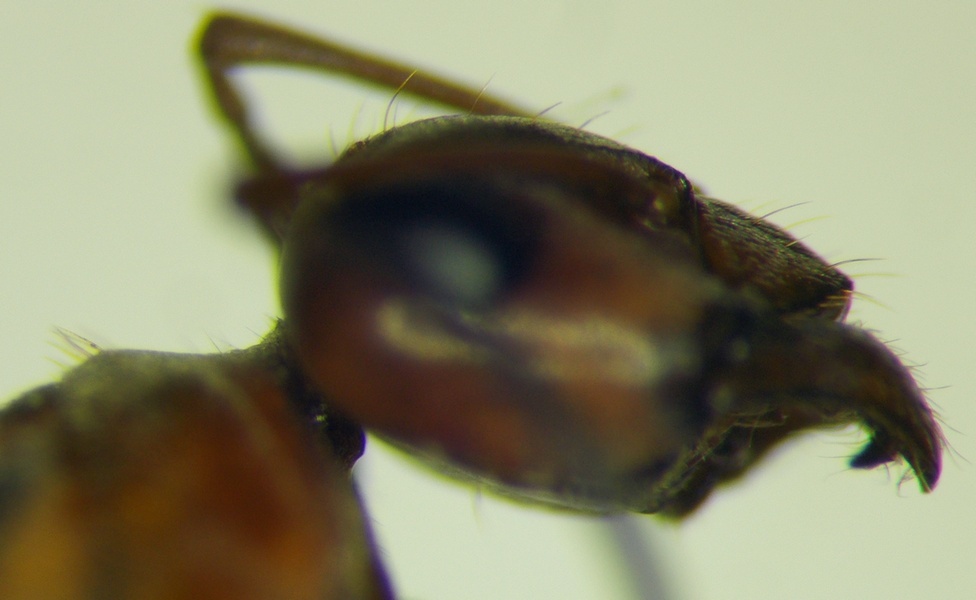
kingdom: Animalia
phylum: Arthropoda
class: Insecta
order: Hymenoptera
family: Formicidae
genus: Formica
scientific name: Formica subpilosa
